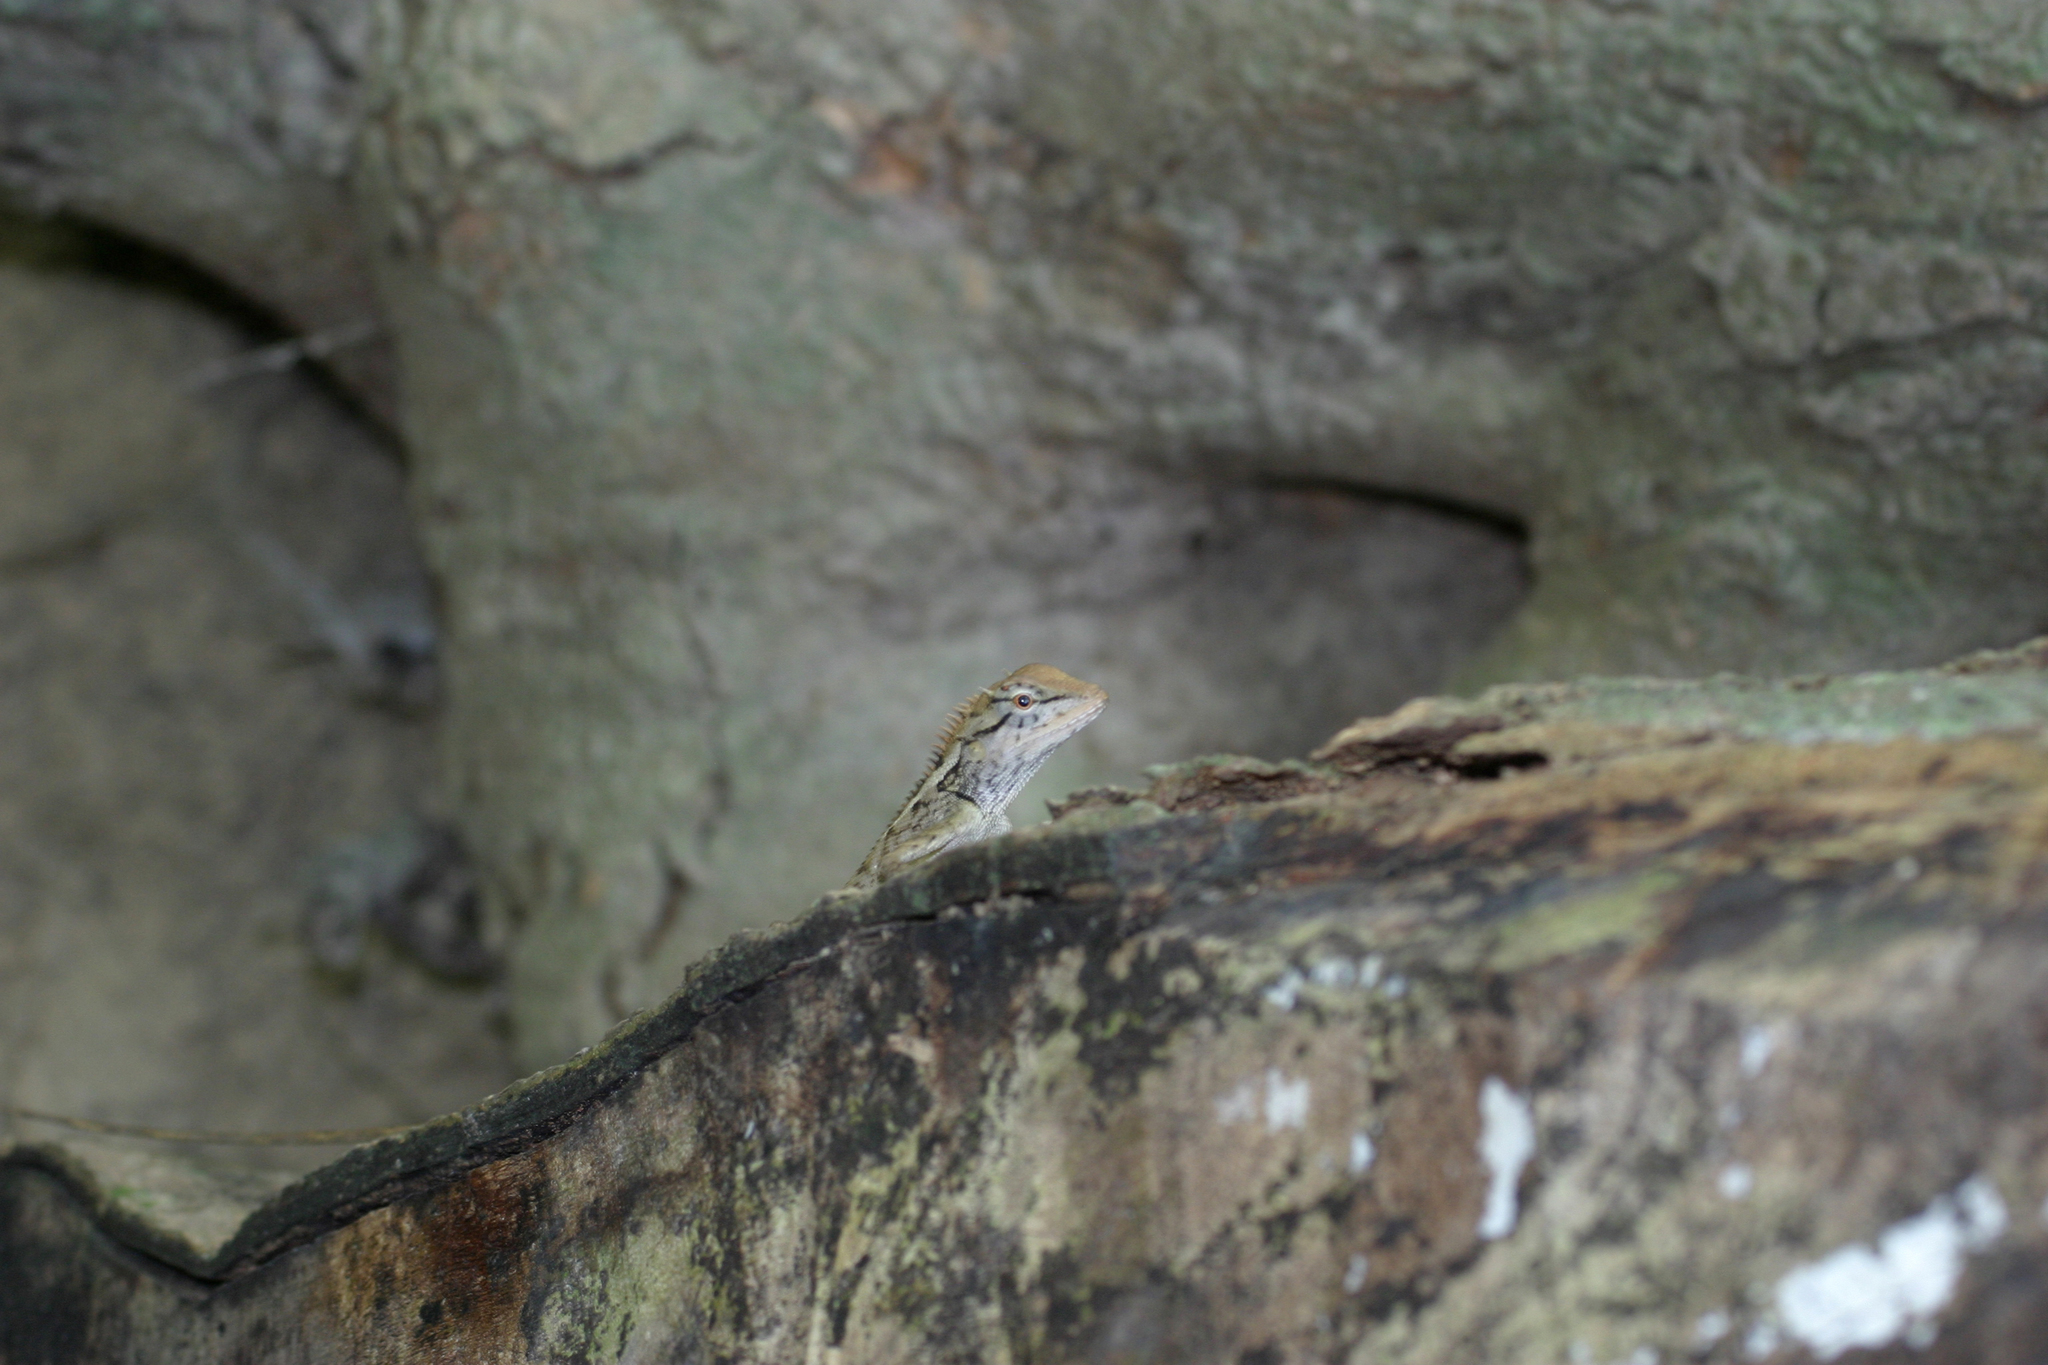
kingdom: Animalia
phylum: Chordata
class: Squamata
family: Agamidae
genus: Calotes
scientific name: Calotes emma
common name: Thailand bloodsucker
